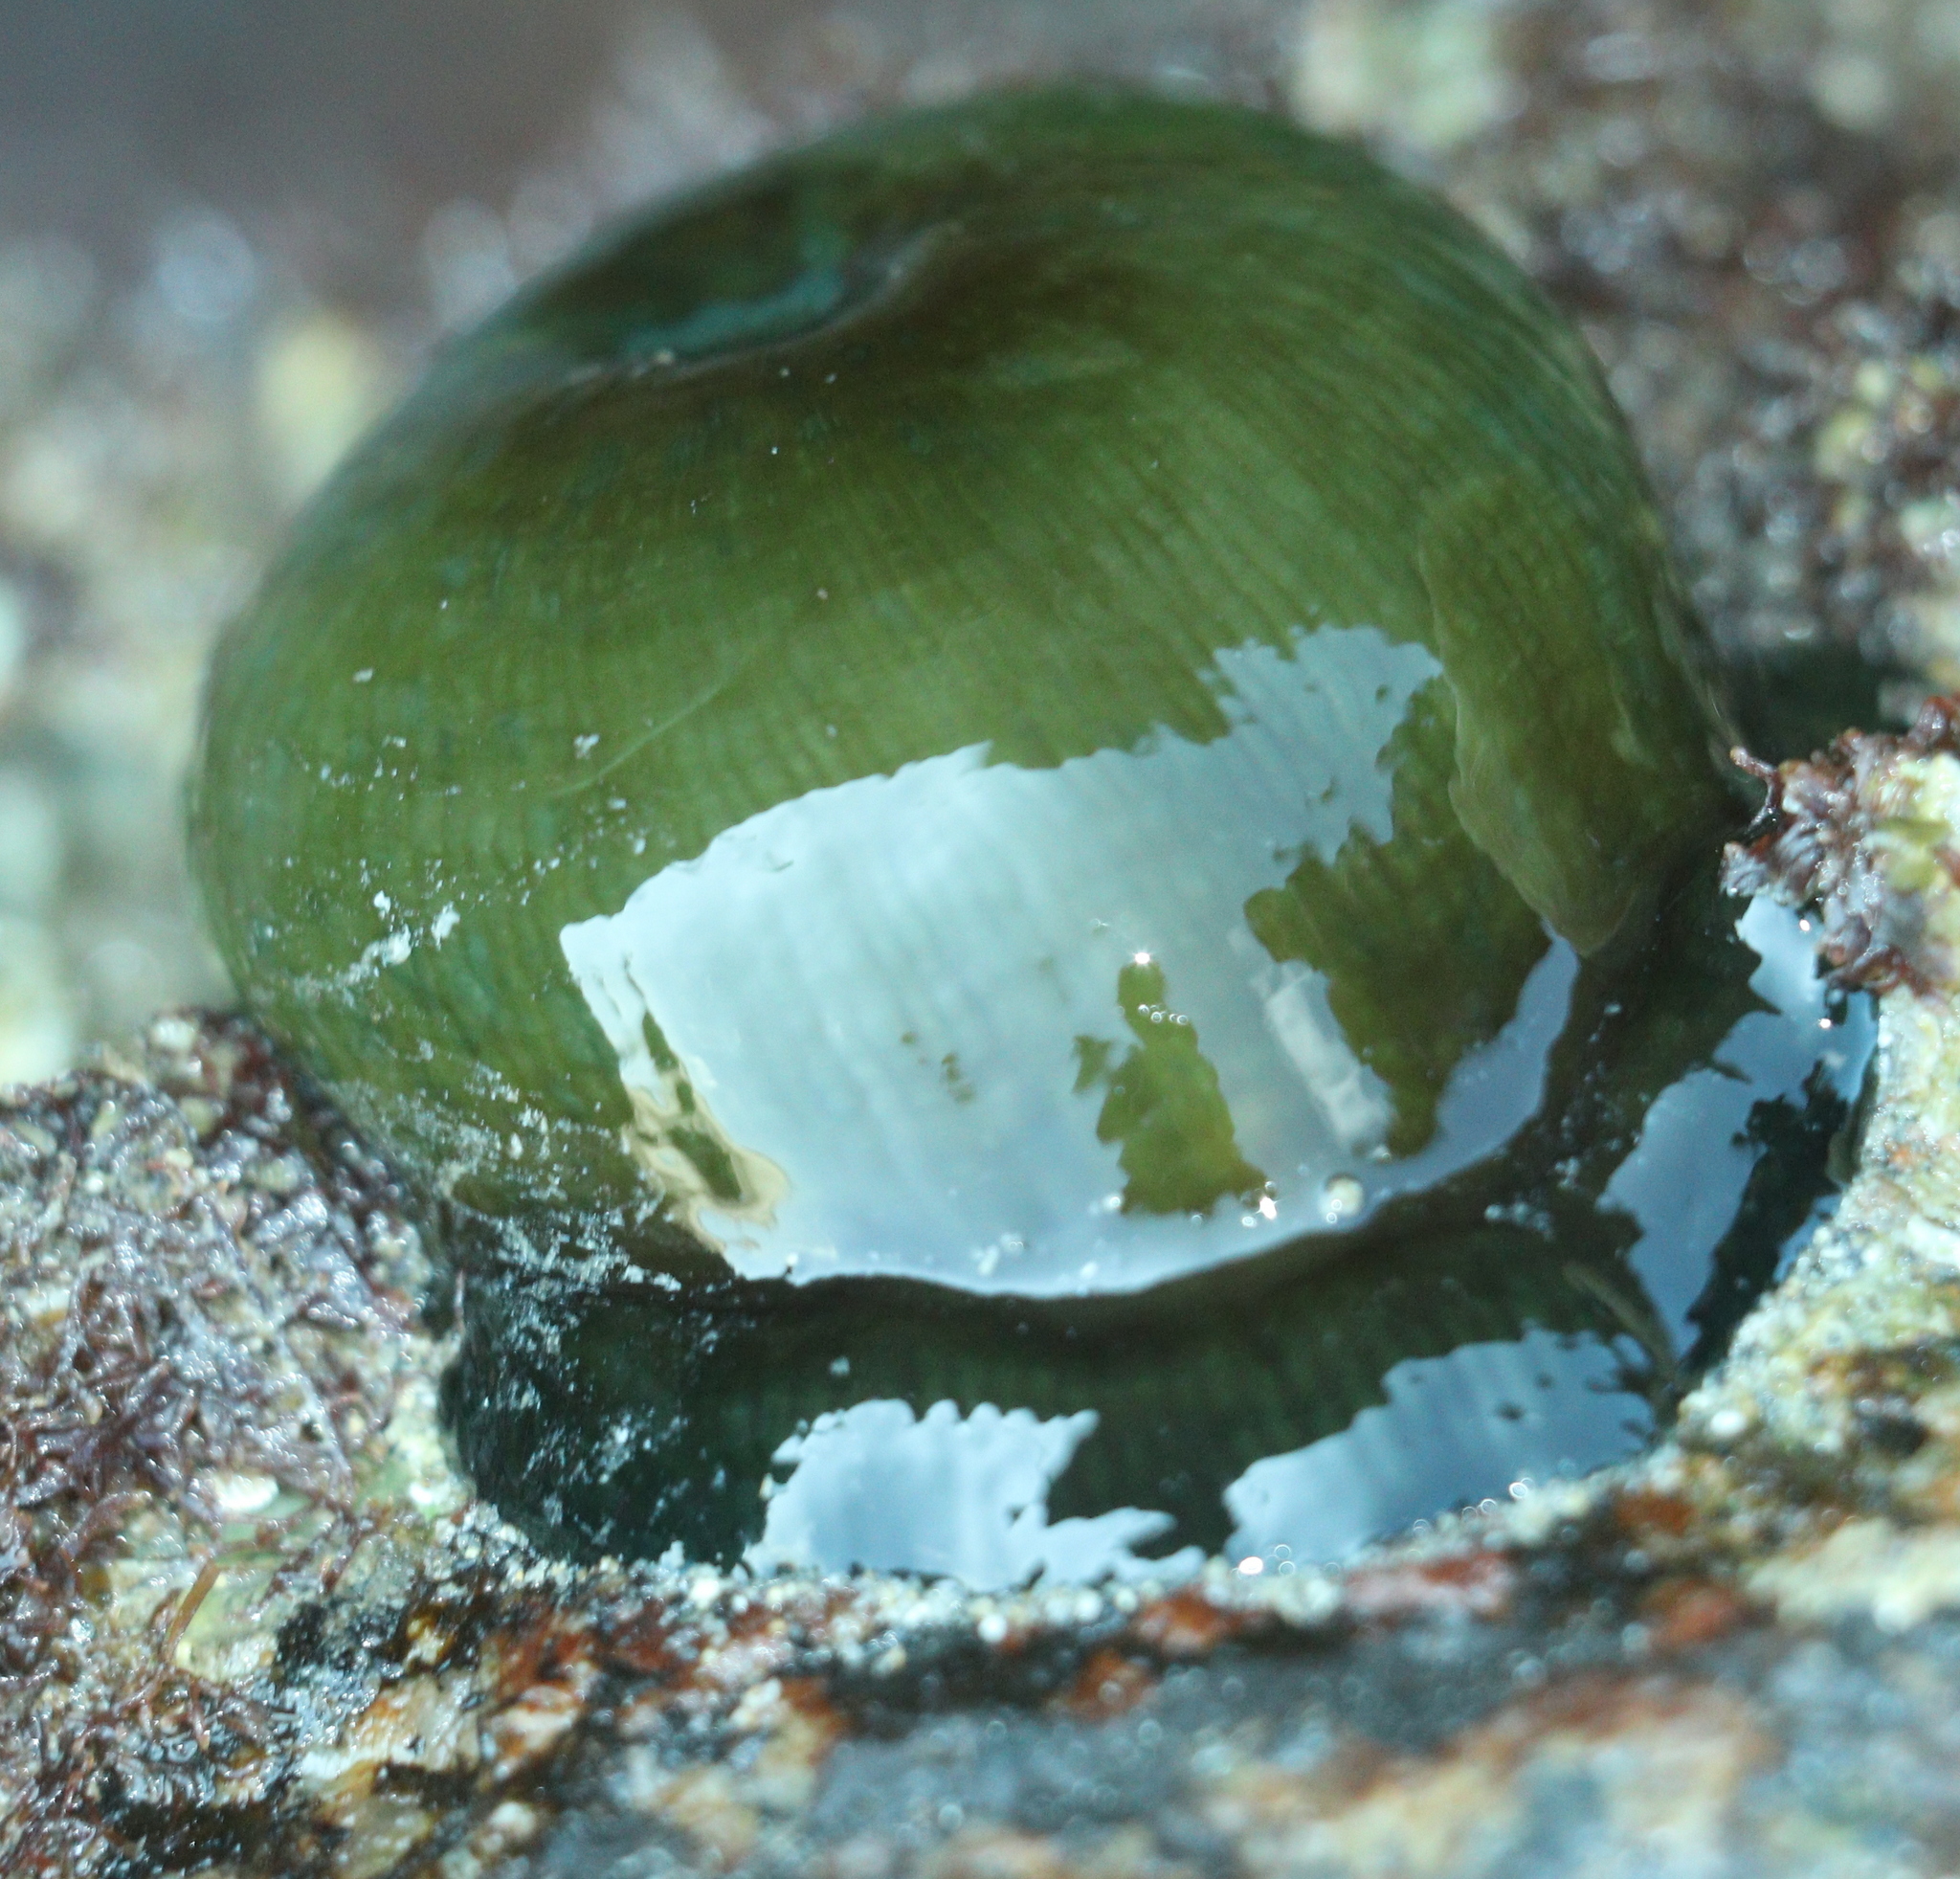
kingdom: Animalia
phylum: Cnidaria
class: Anthozoa
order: Actiniaria
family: Actiniidae
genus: Actinia
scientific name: Actinia equina
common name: Beadlet anemone
